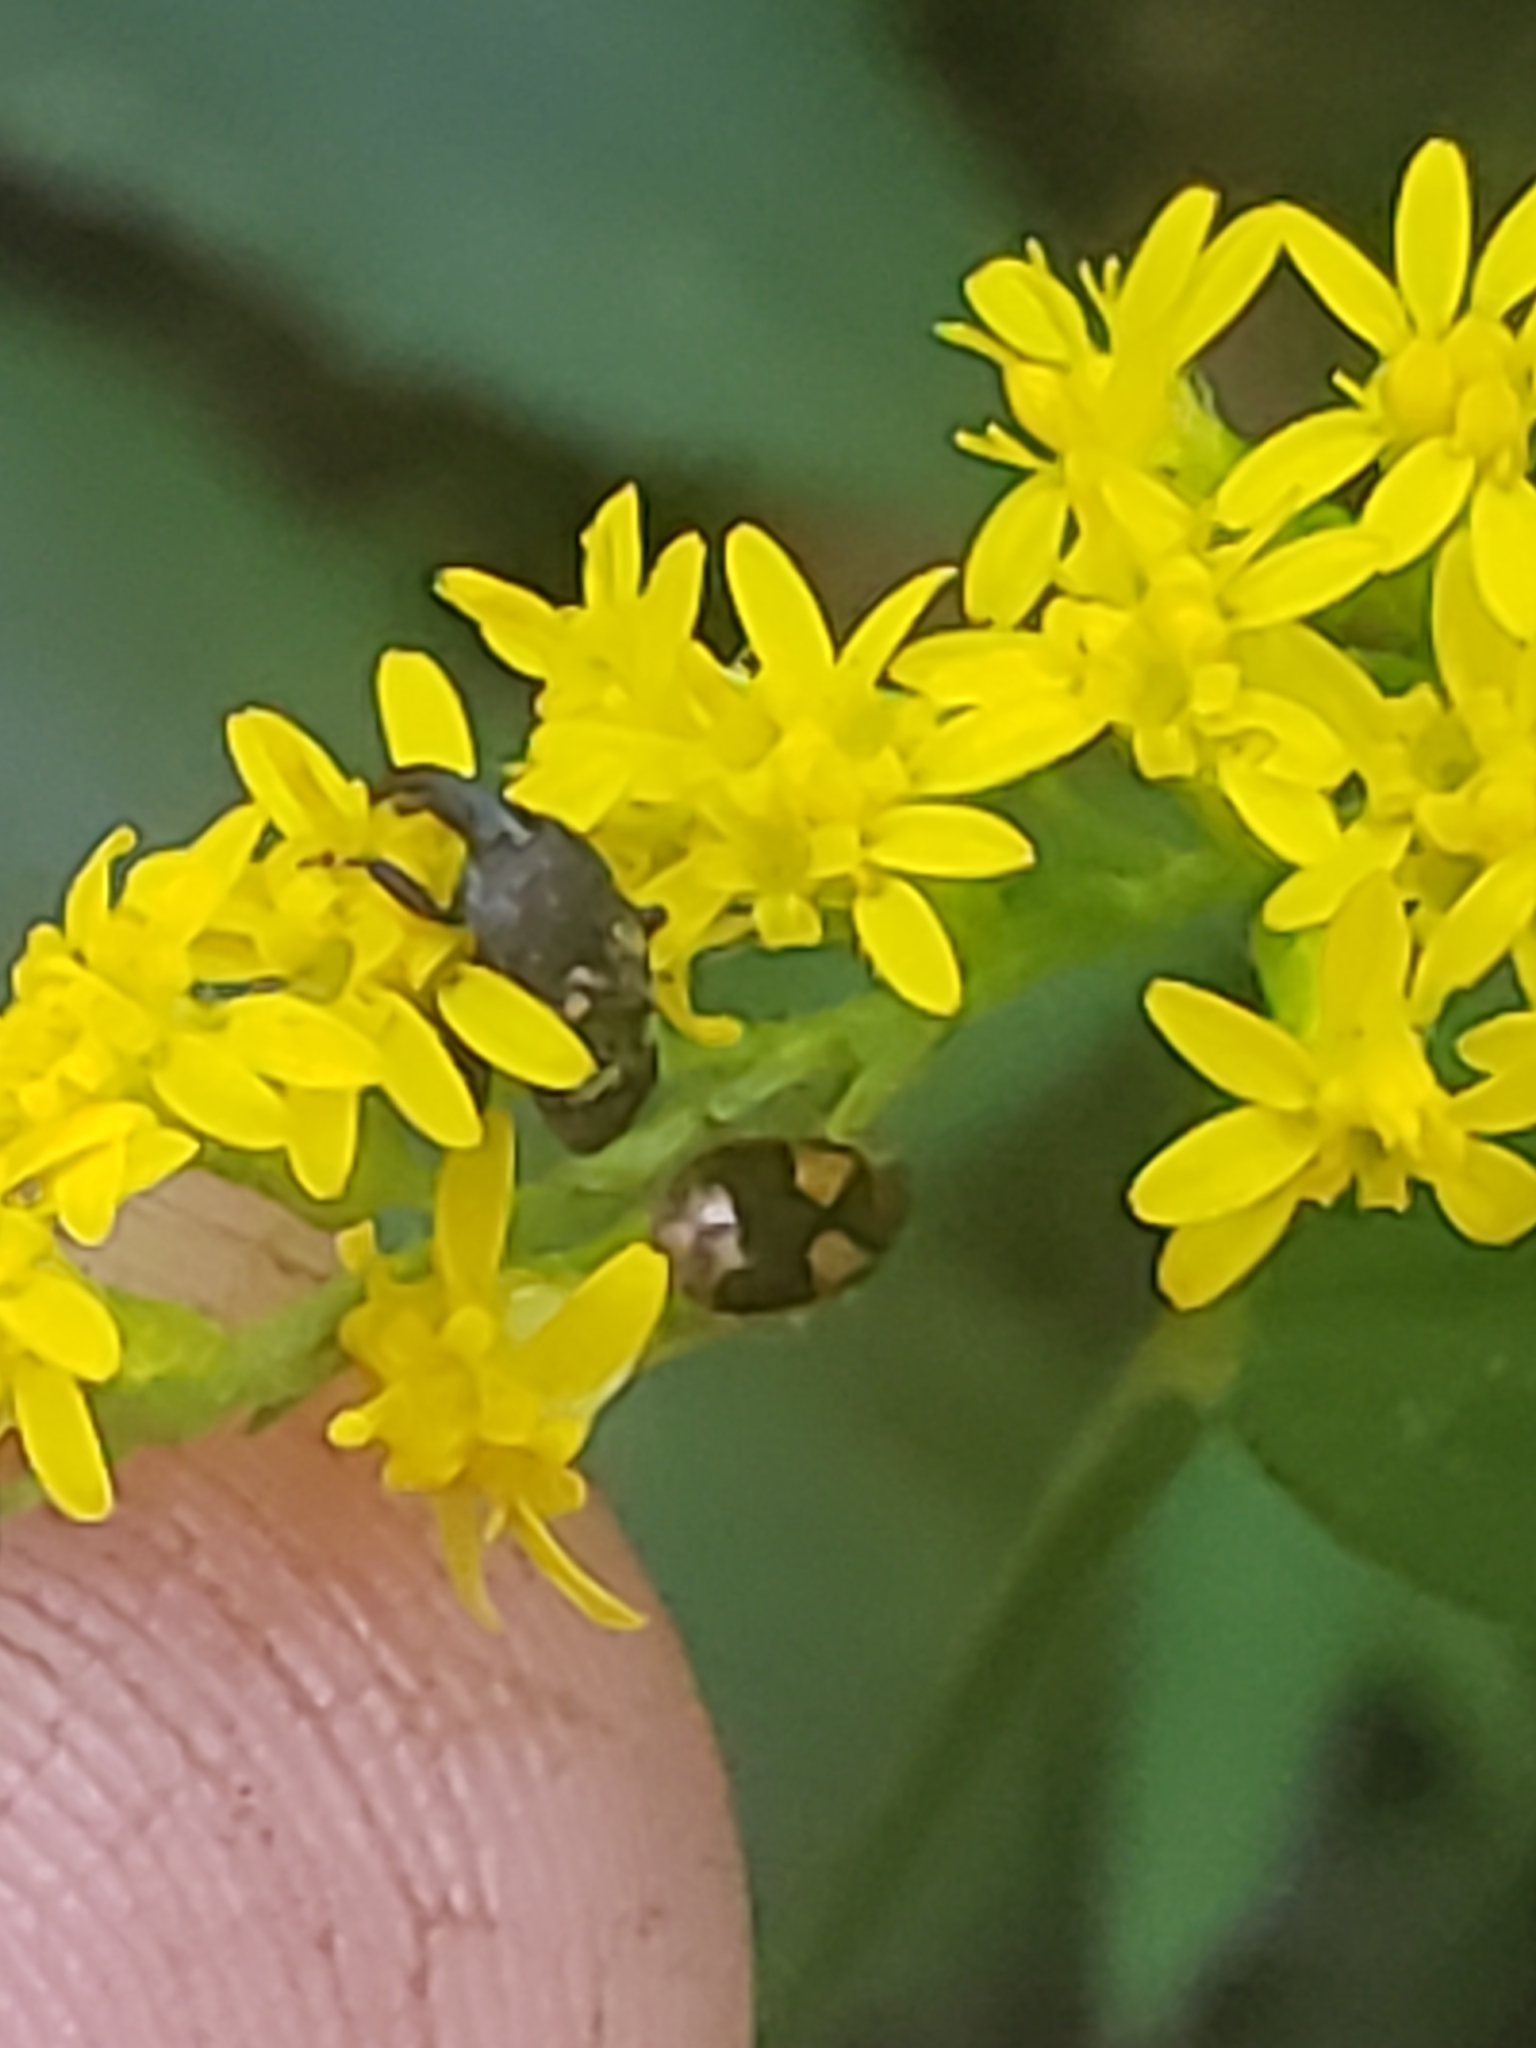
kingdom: Animalia
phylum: Arthropoda
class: Insecta
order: Coleoptera
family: Curculionidae
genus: Glyptobaris
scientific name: Glyptobaris lecontei
